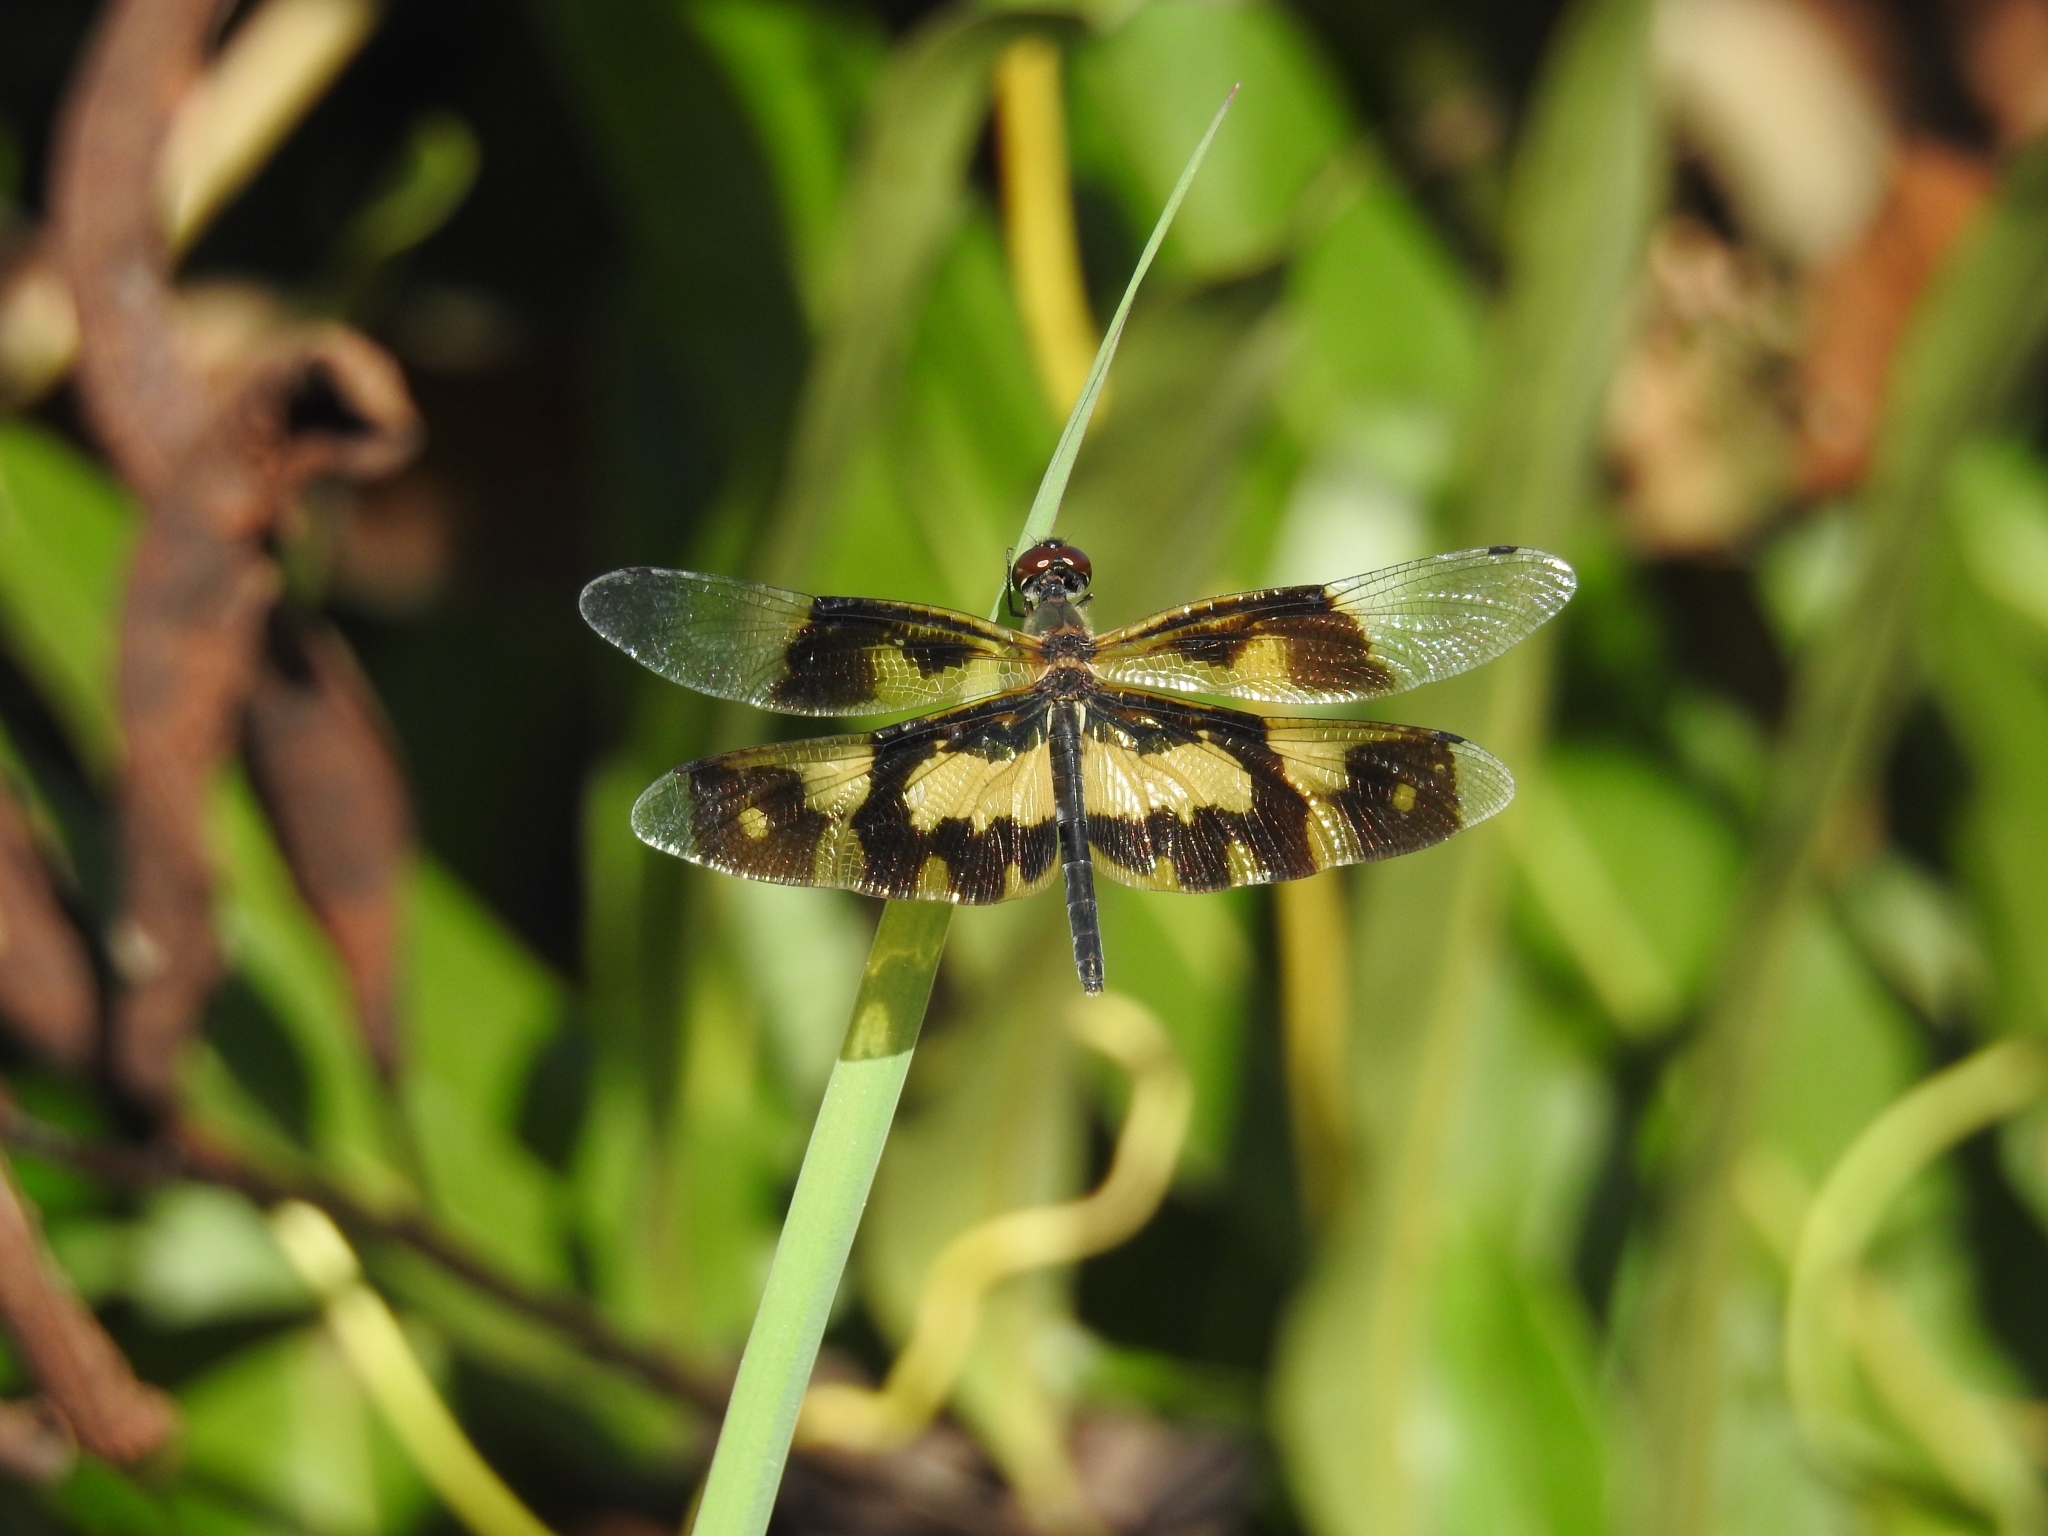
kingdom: Animalia
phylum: Arthropoda
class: Insecta
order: Odonata
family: Libellulidae
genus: Rhyothemis
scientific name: Rhyothemis variegata
